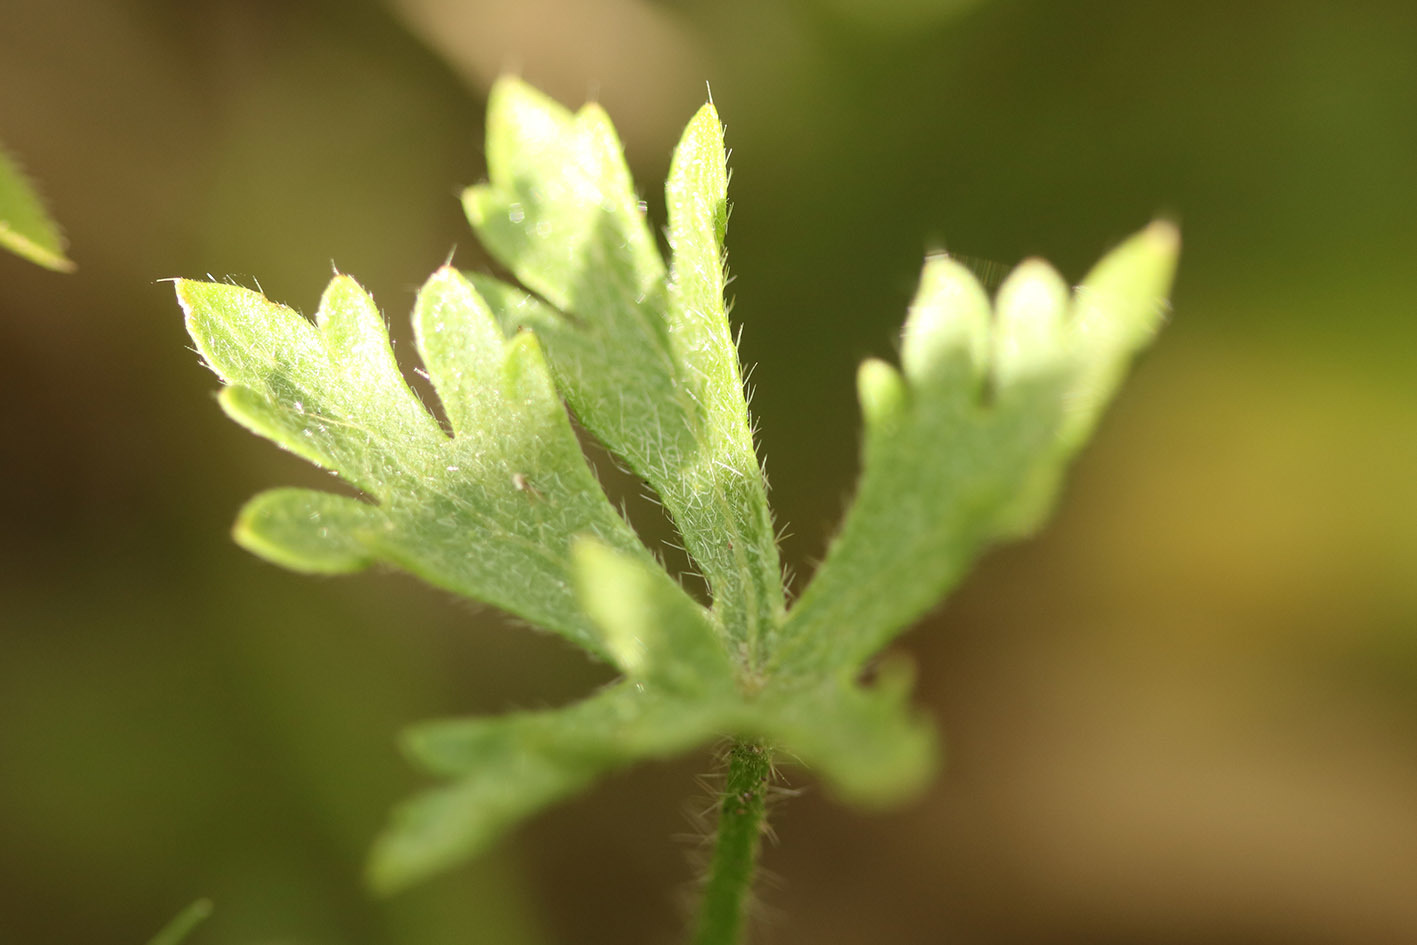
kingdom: Plantae
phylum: Tracheophyta
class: Magnoliopsida
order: Malvales
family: Malvaceae
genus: Modiolastrum
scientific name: Modiolastrum gilliesii
